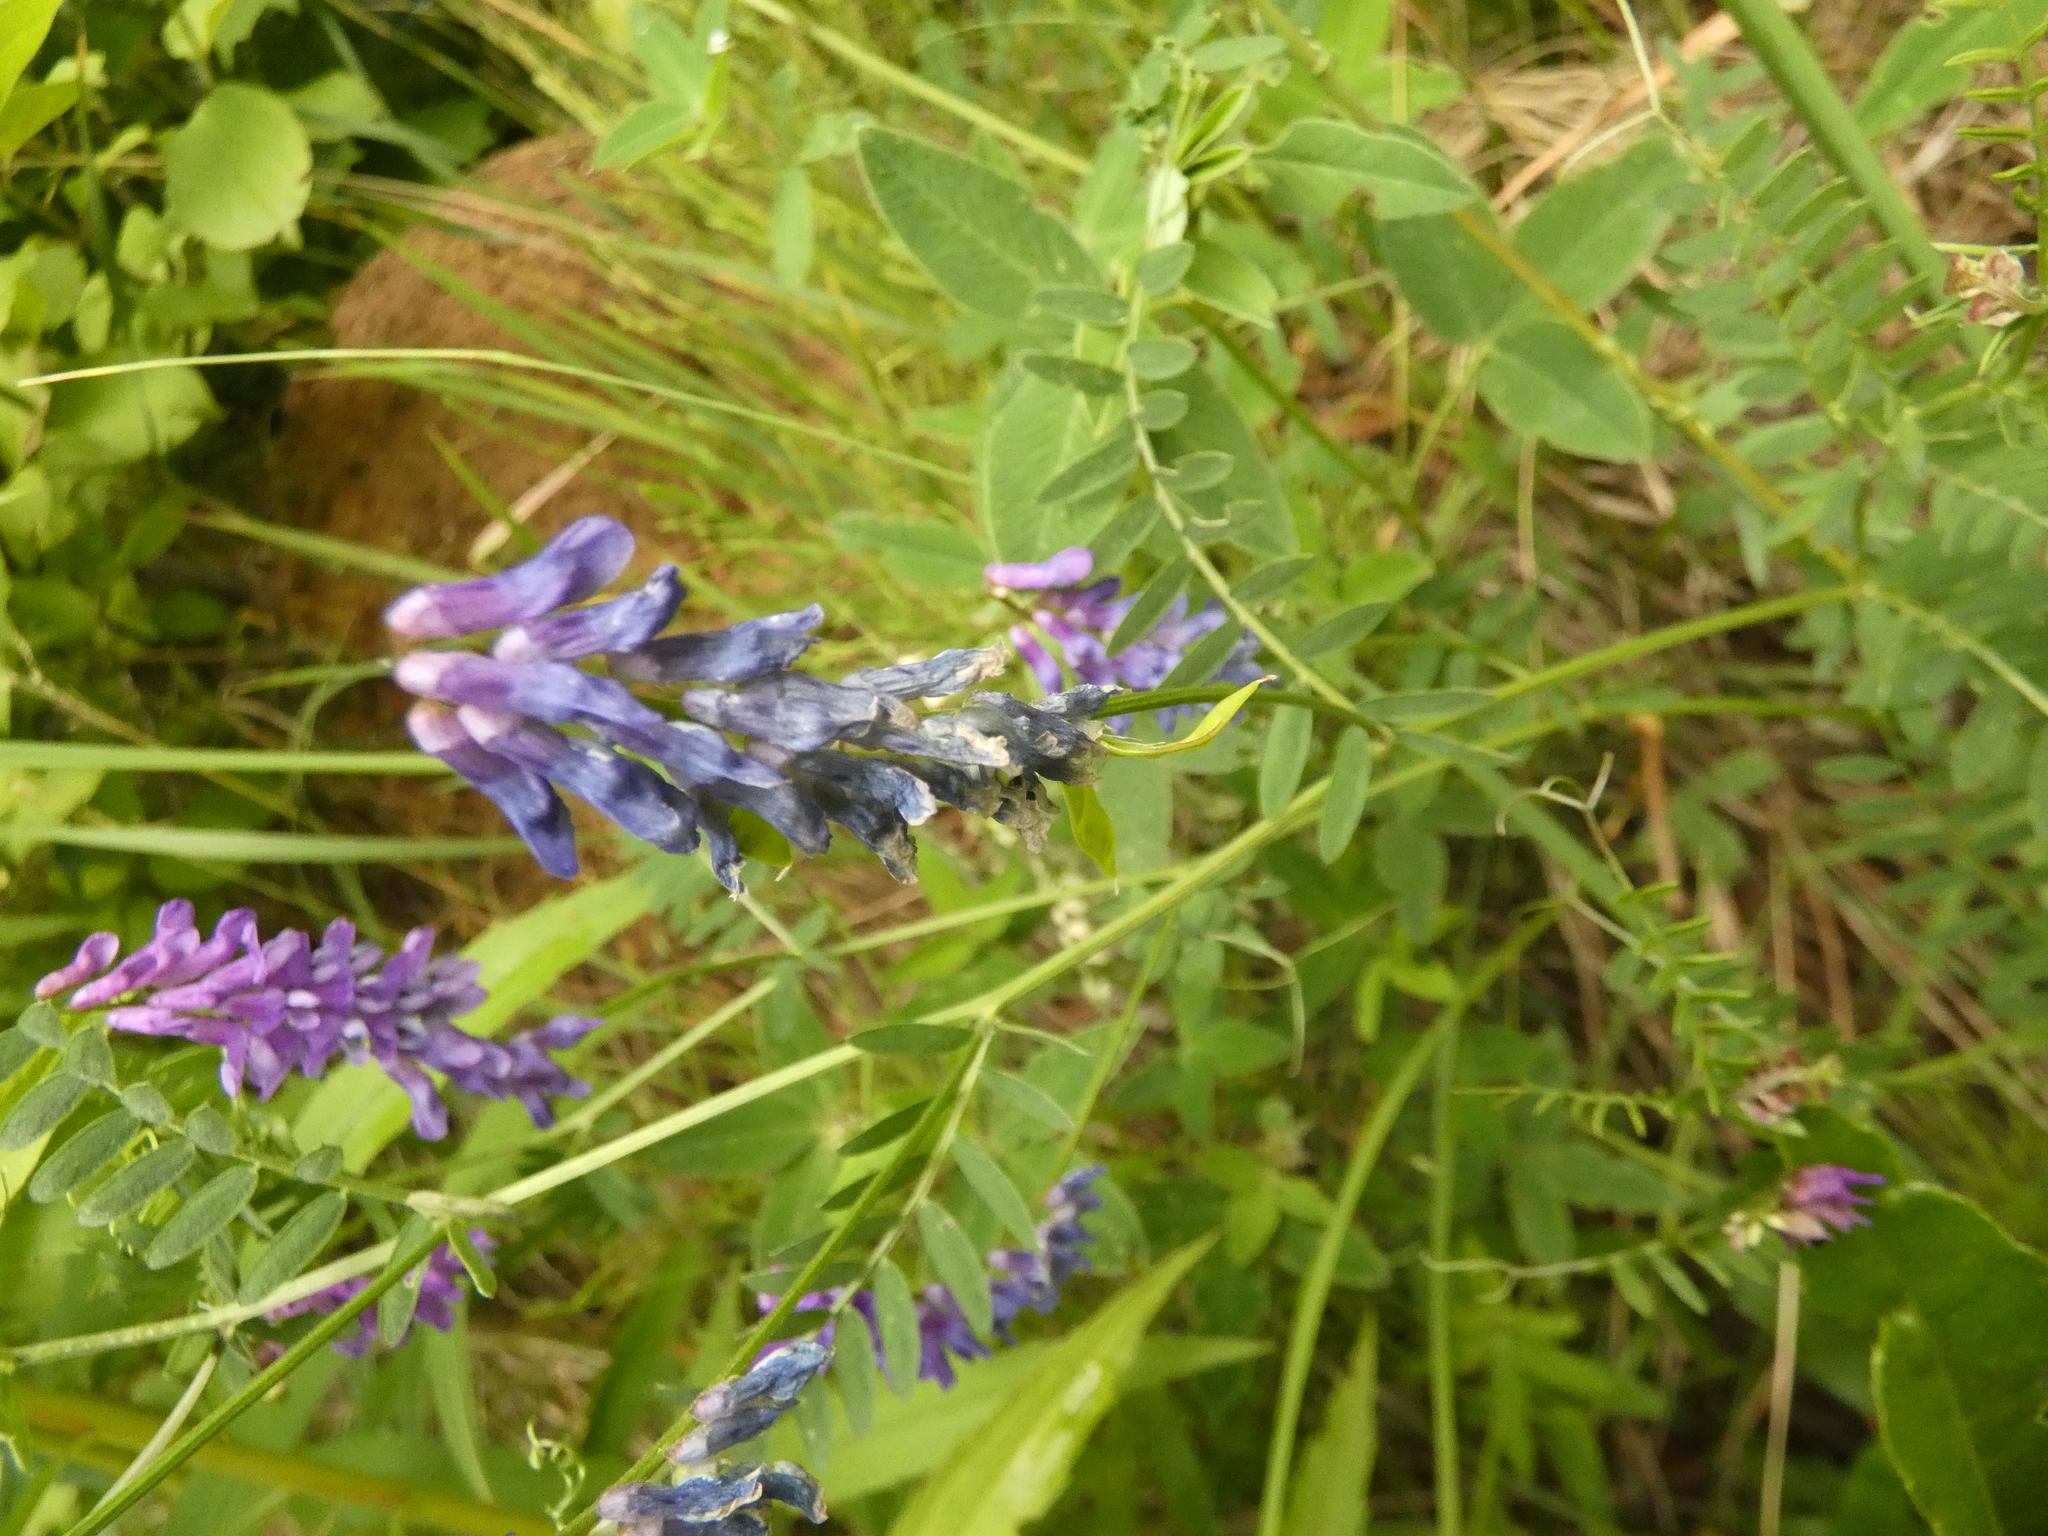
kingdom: Plantae
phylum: Tracheophyta
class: Magnoliopsida
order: Fabales
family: Fabaceae
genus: Vicia
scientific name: Vicia cracca
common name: Bird vetch
